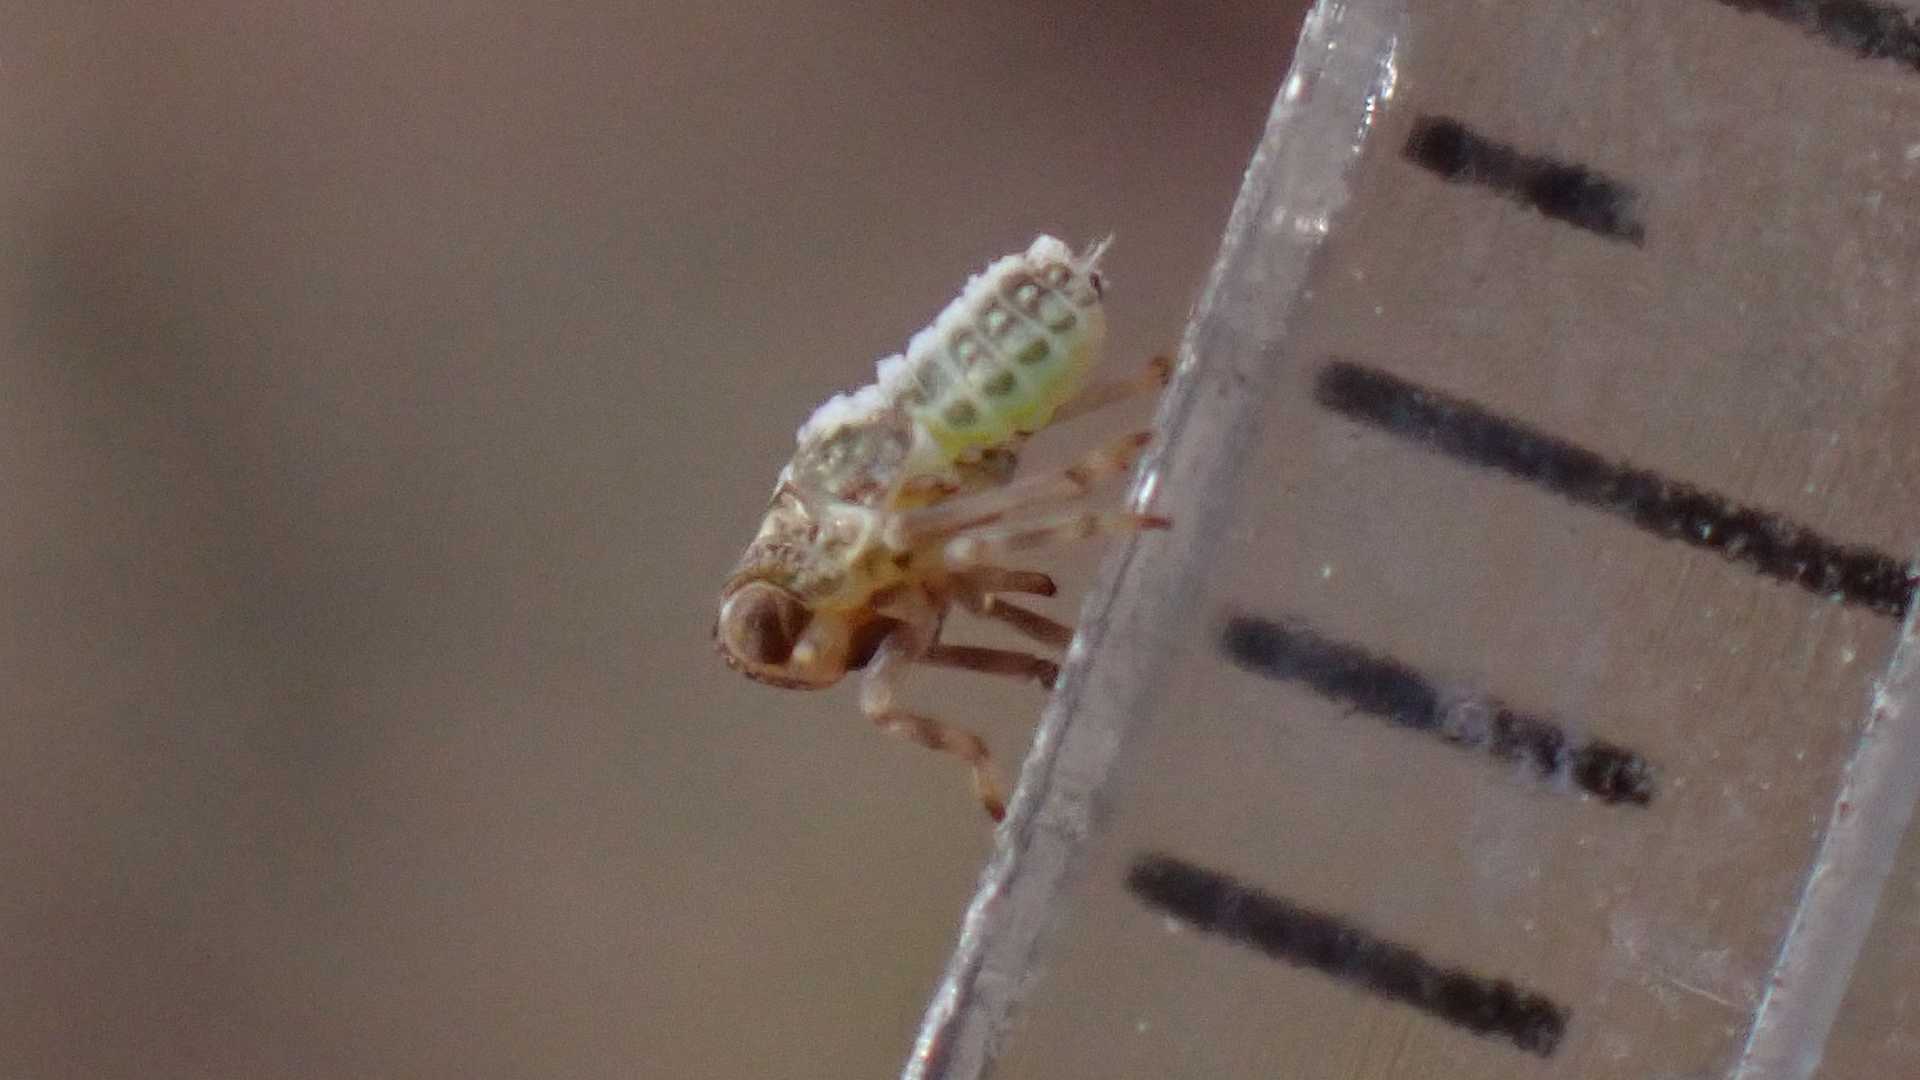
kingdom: Animalia
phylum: Arthropoda
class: Insecta
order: Hemiptera
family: Issidae
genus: Issus
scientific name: Issus coleoptratus
